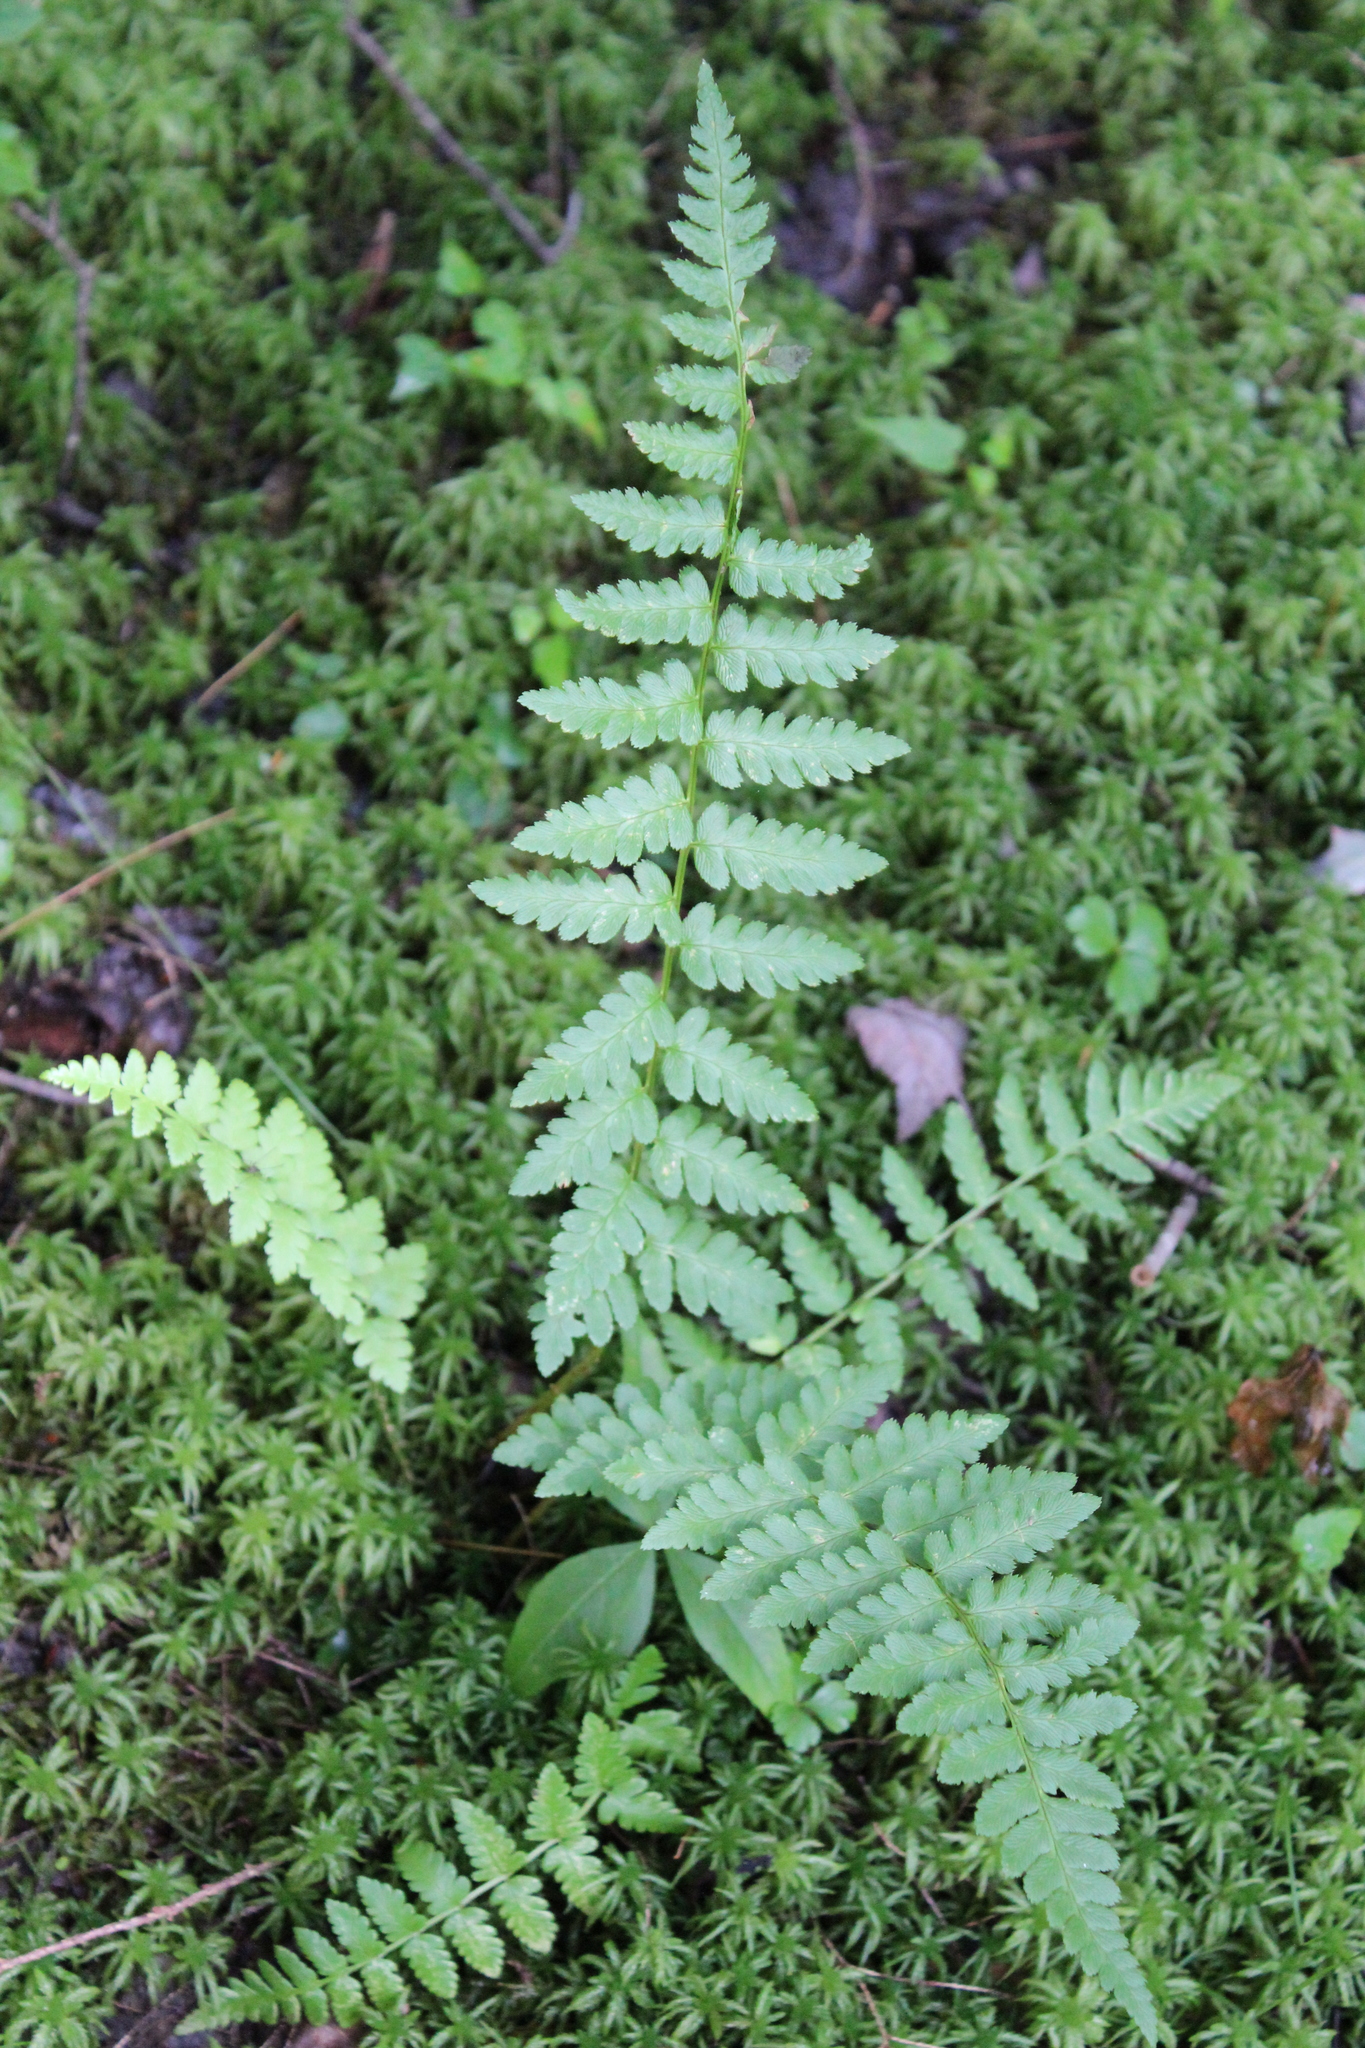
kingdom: Plantae
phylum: Tracheophyta
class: Polypodiopsida
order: Polypodiales
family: Dryopteridaceae
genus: Dryopteris
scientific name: Dryopteris cristata
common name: Crested wood fern
